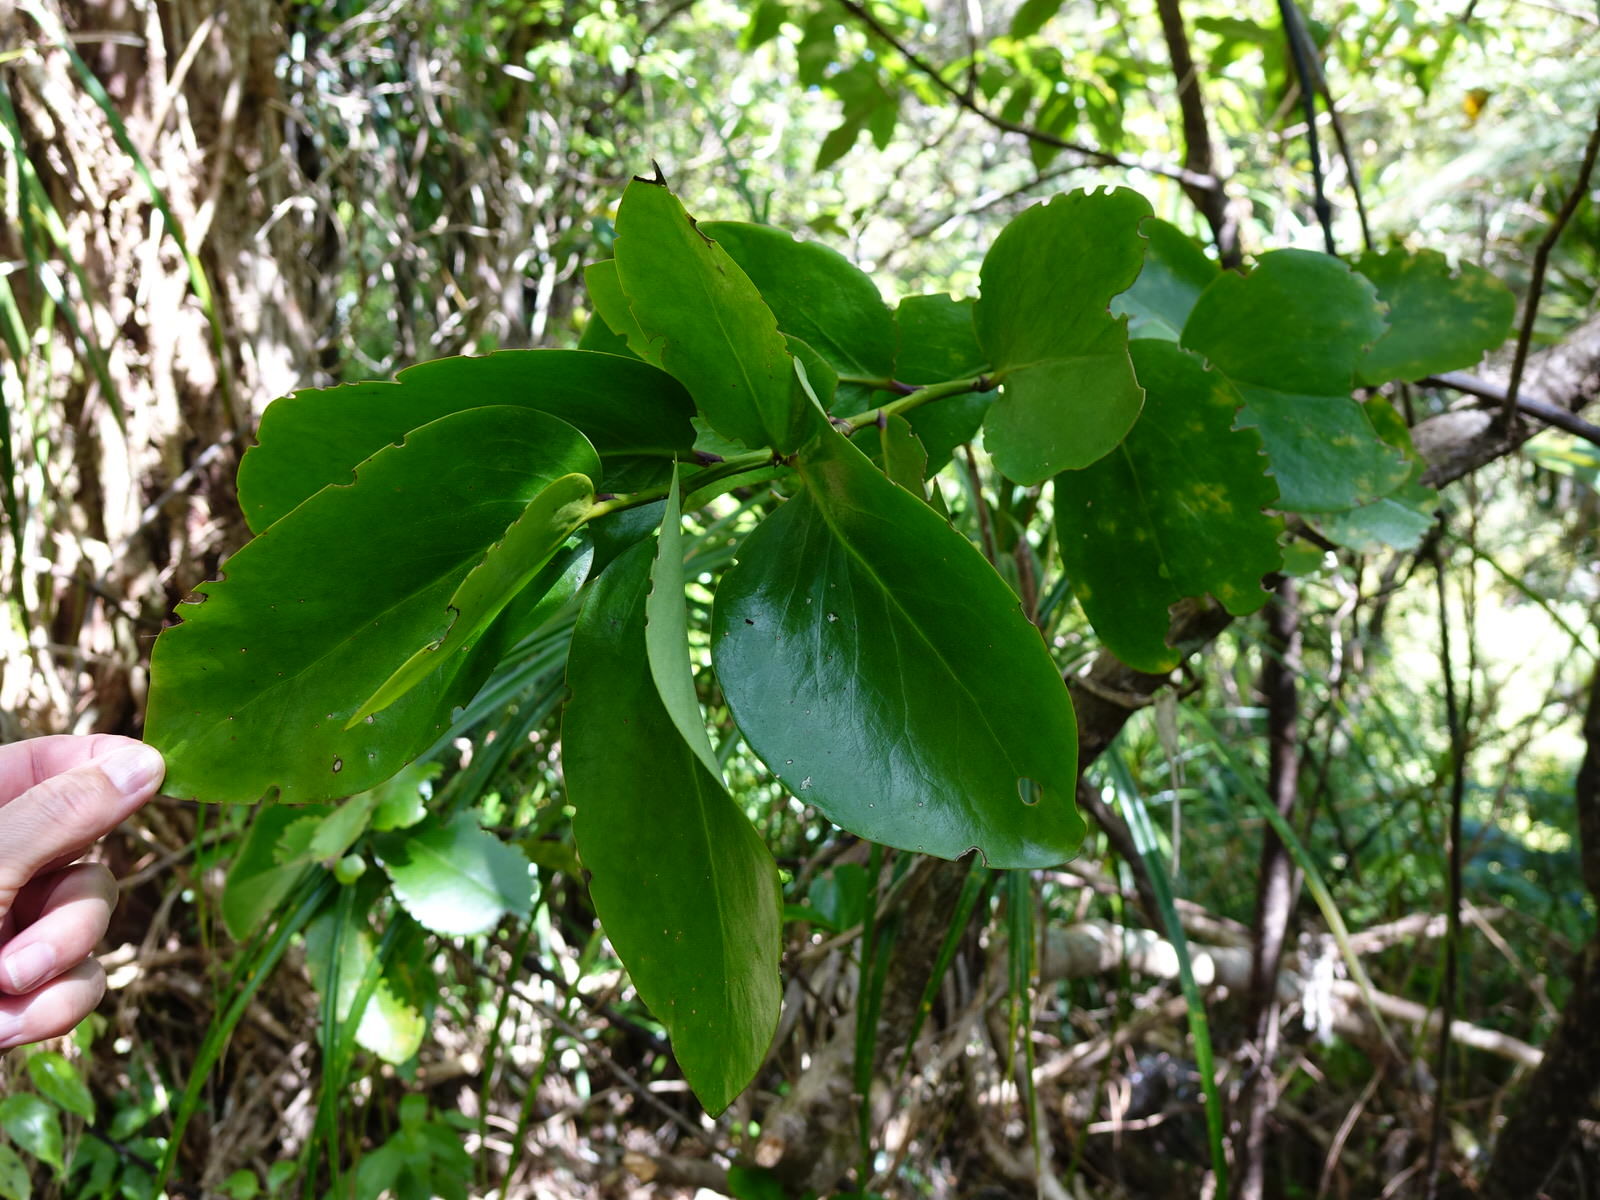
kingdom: Plantae
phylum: Tracheophyta
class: Magnoliopsida
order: Apiales
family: Griseliniaceae
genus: Griselinia
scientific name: Griselinia lucida
